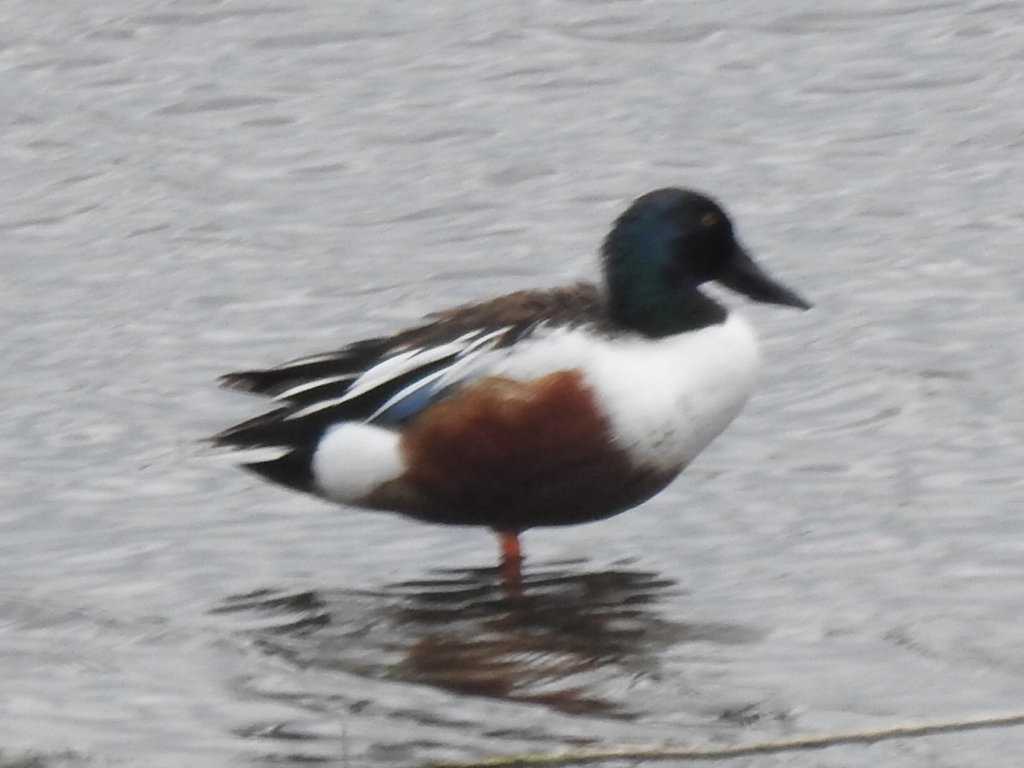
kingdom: Animalia
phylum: Chordata
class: Aves
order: Anseriformes
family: Anatidae
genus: Spatula
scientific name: Spatula clypeata
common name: Northern shoveler
